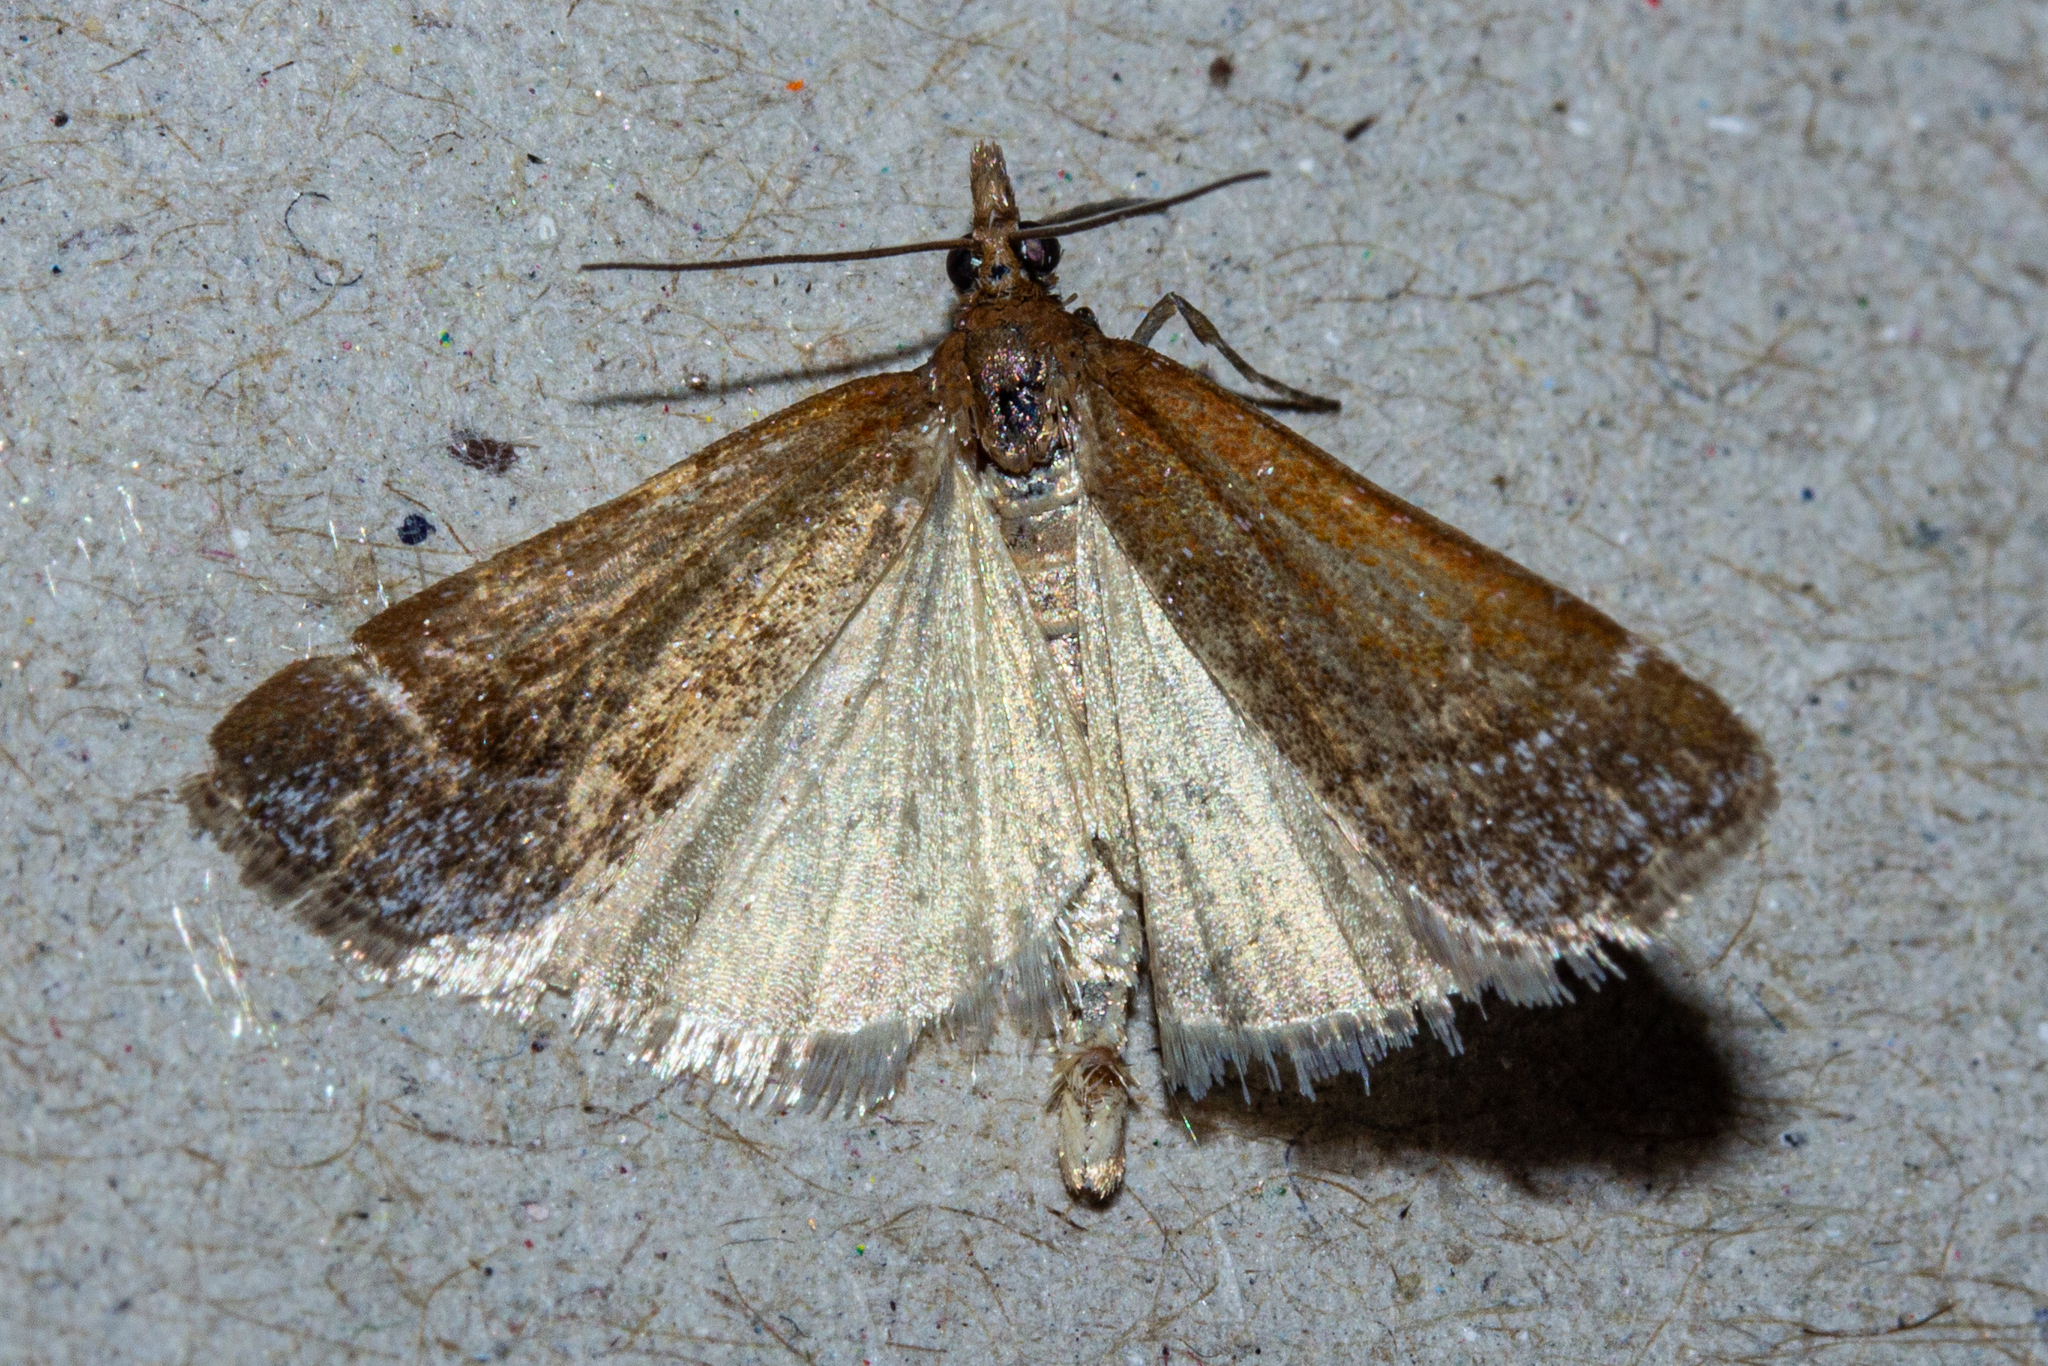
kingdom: Animalia
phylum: Arthropoda
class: Insecta
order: Lepidoptera
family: Crambidae
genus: Eudonia
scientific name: Eudonia feredayi
